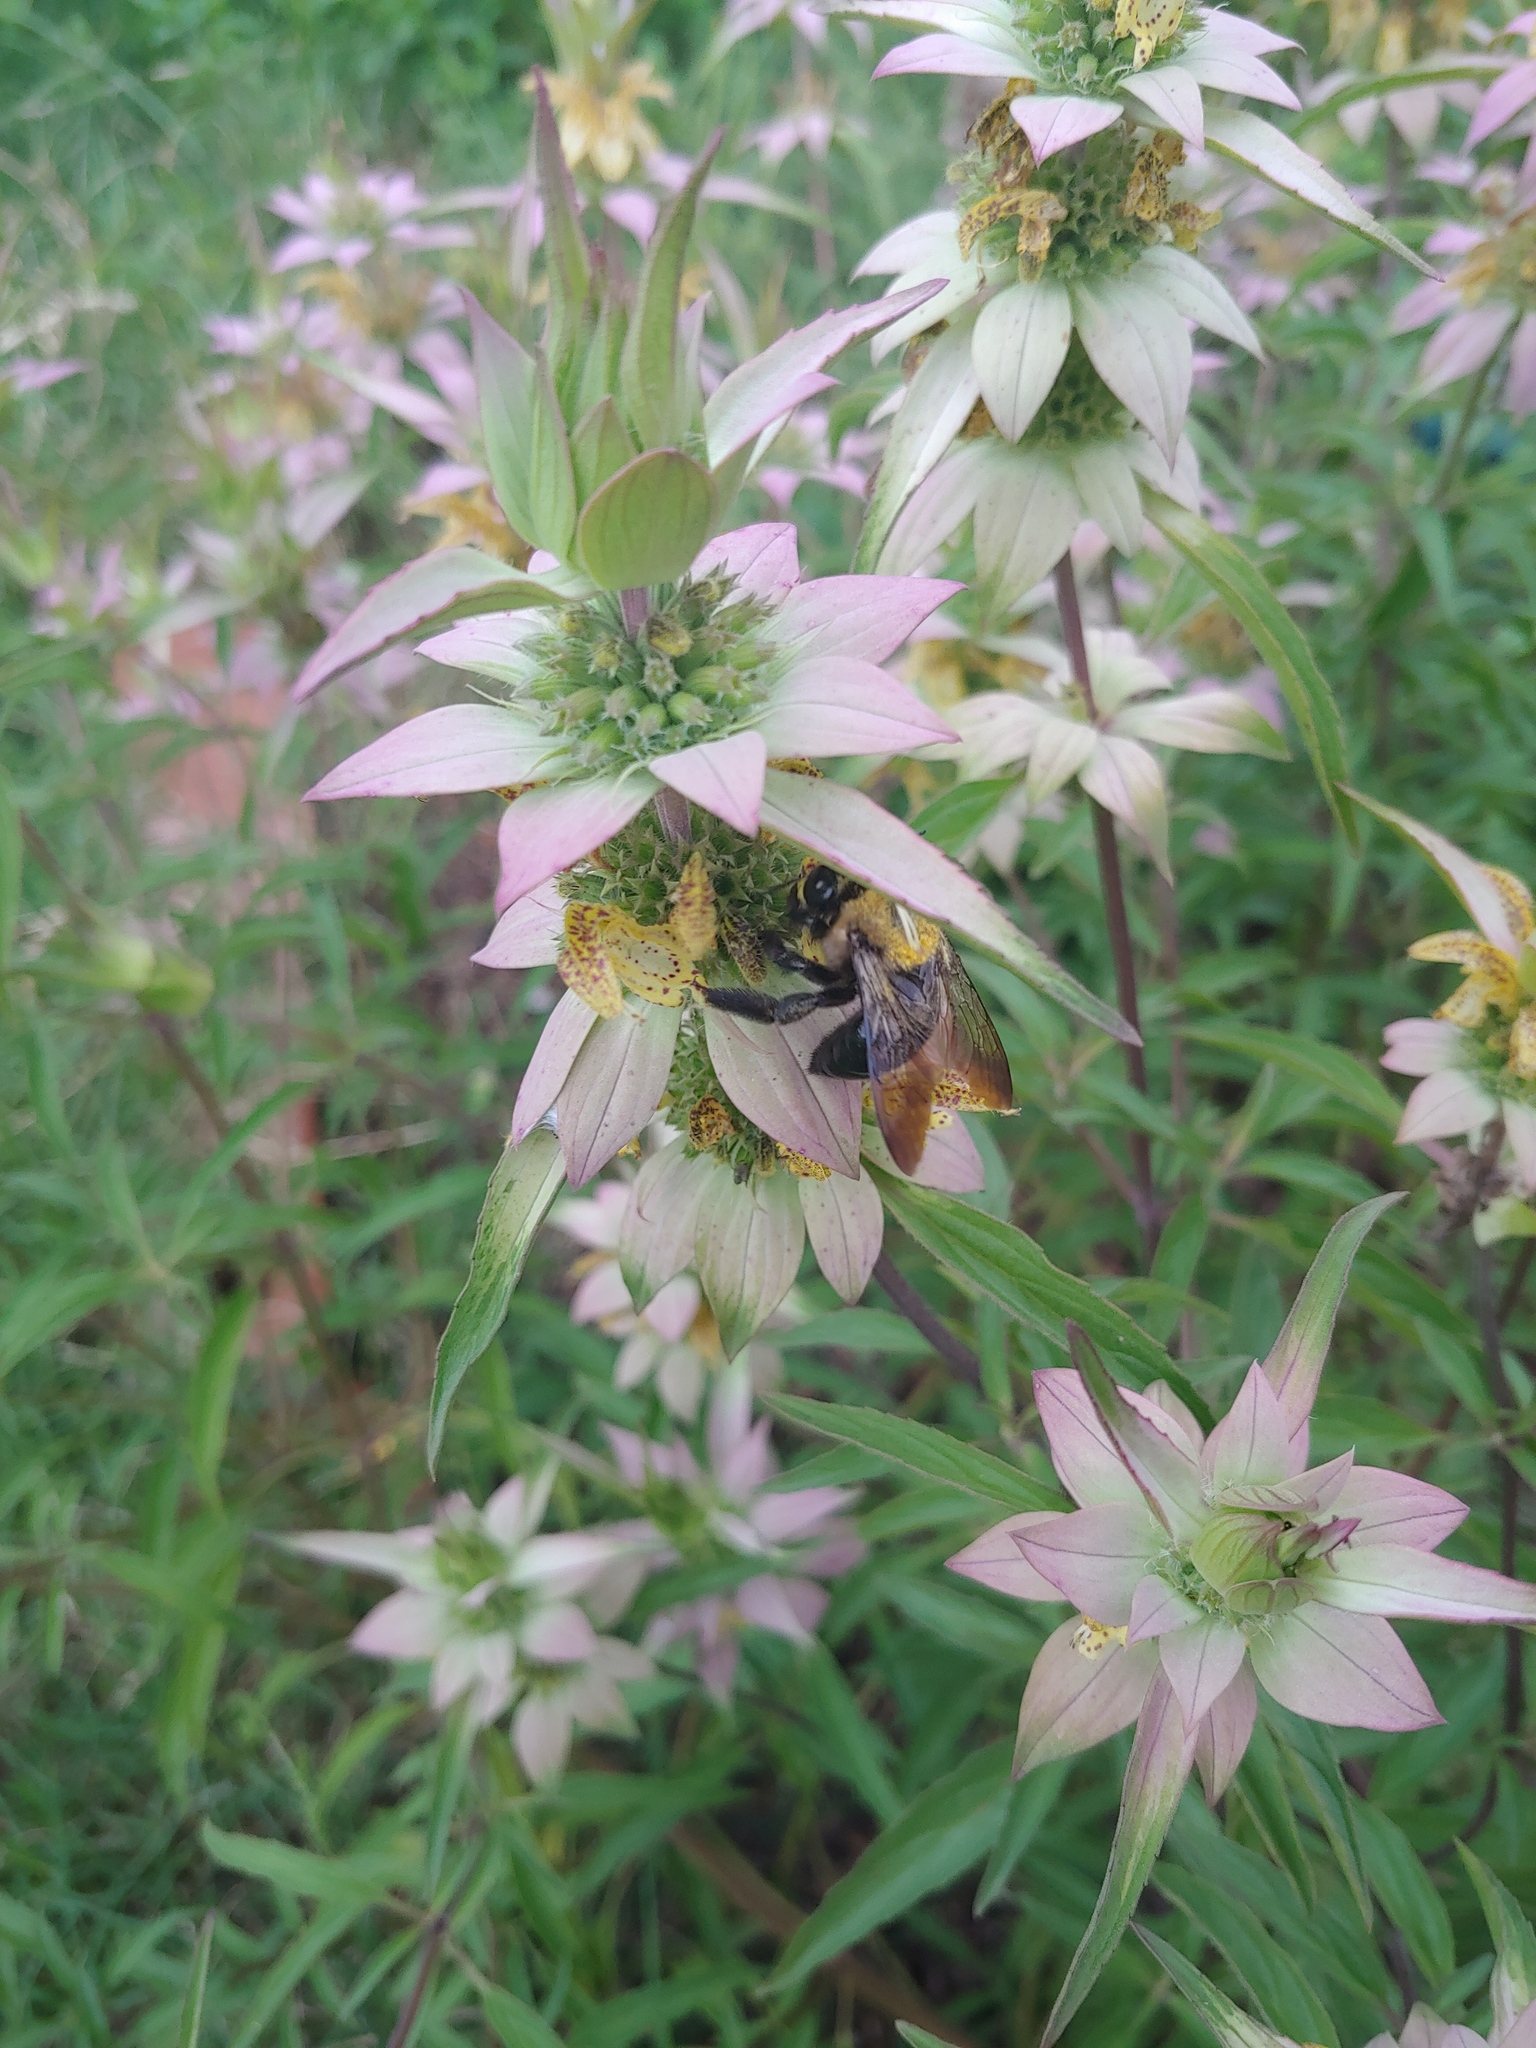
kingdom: Animalia
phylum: Arthropoda
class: Insecta
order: Hymenoptera
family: Apidae
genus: Xylocopa
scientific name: Xylocopa virginica
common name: Carpenter bee
